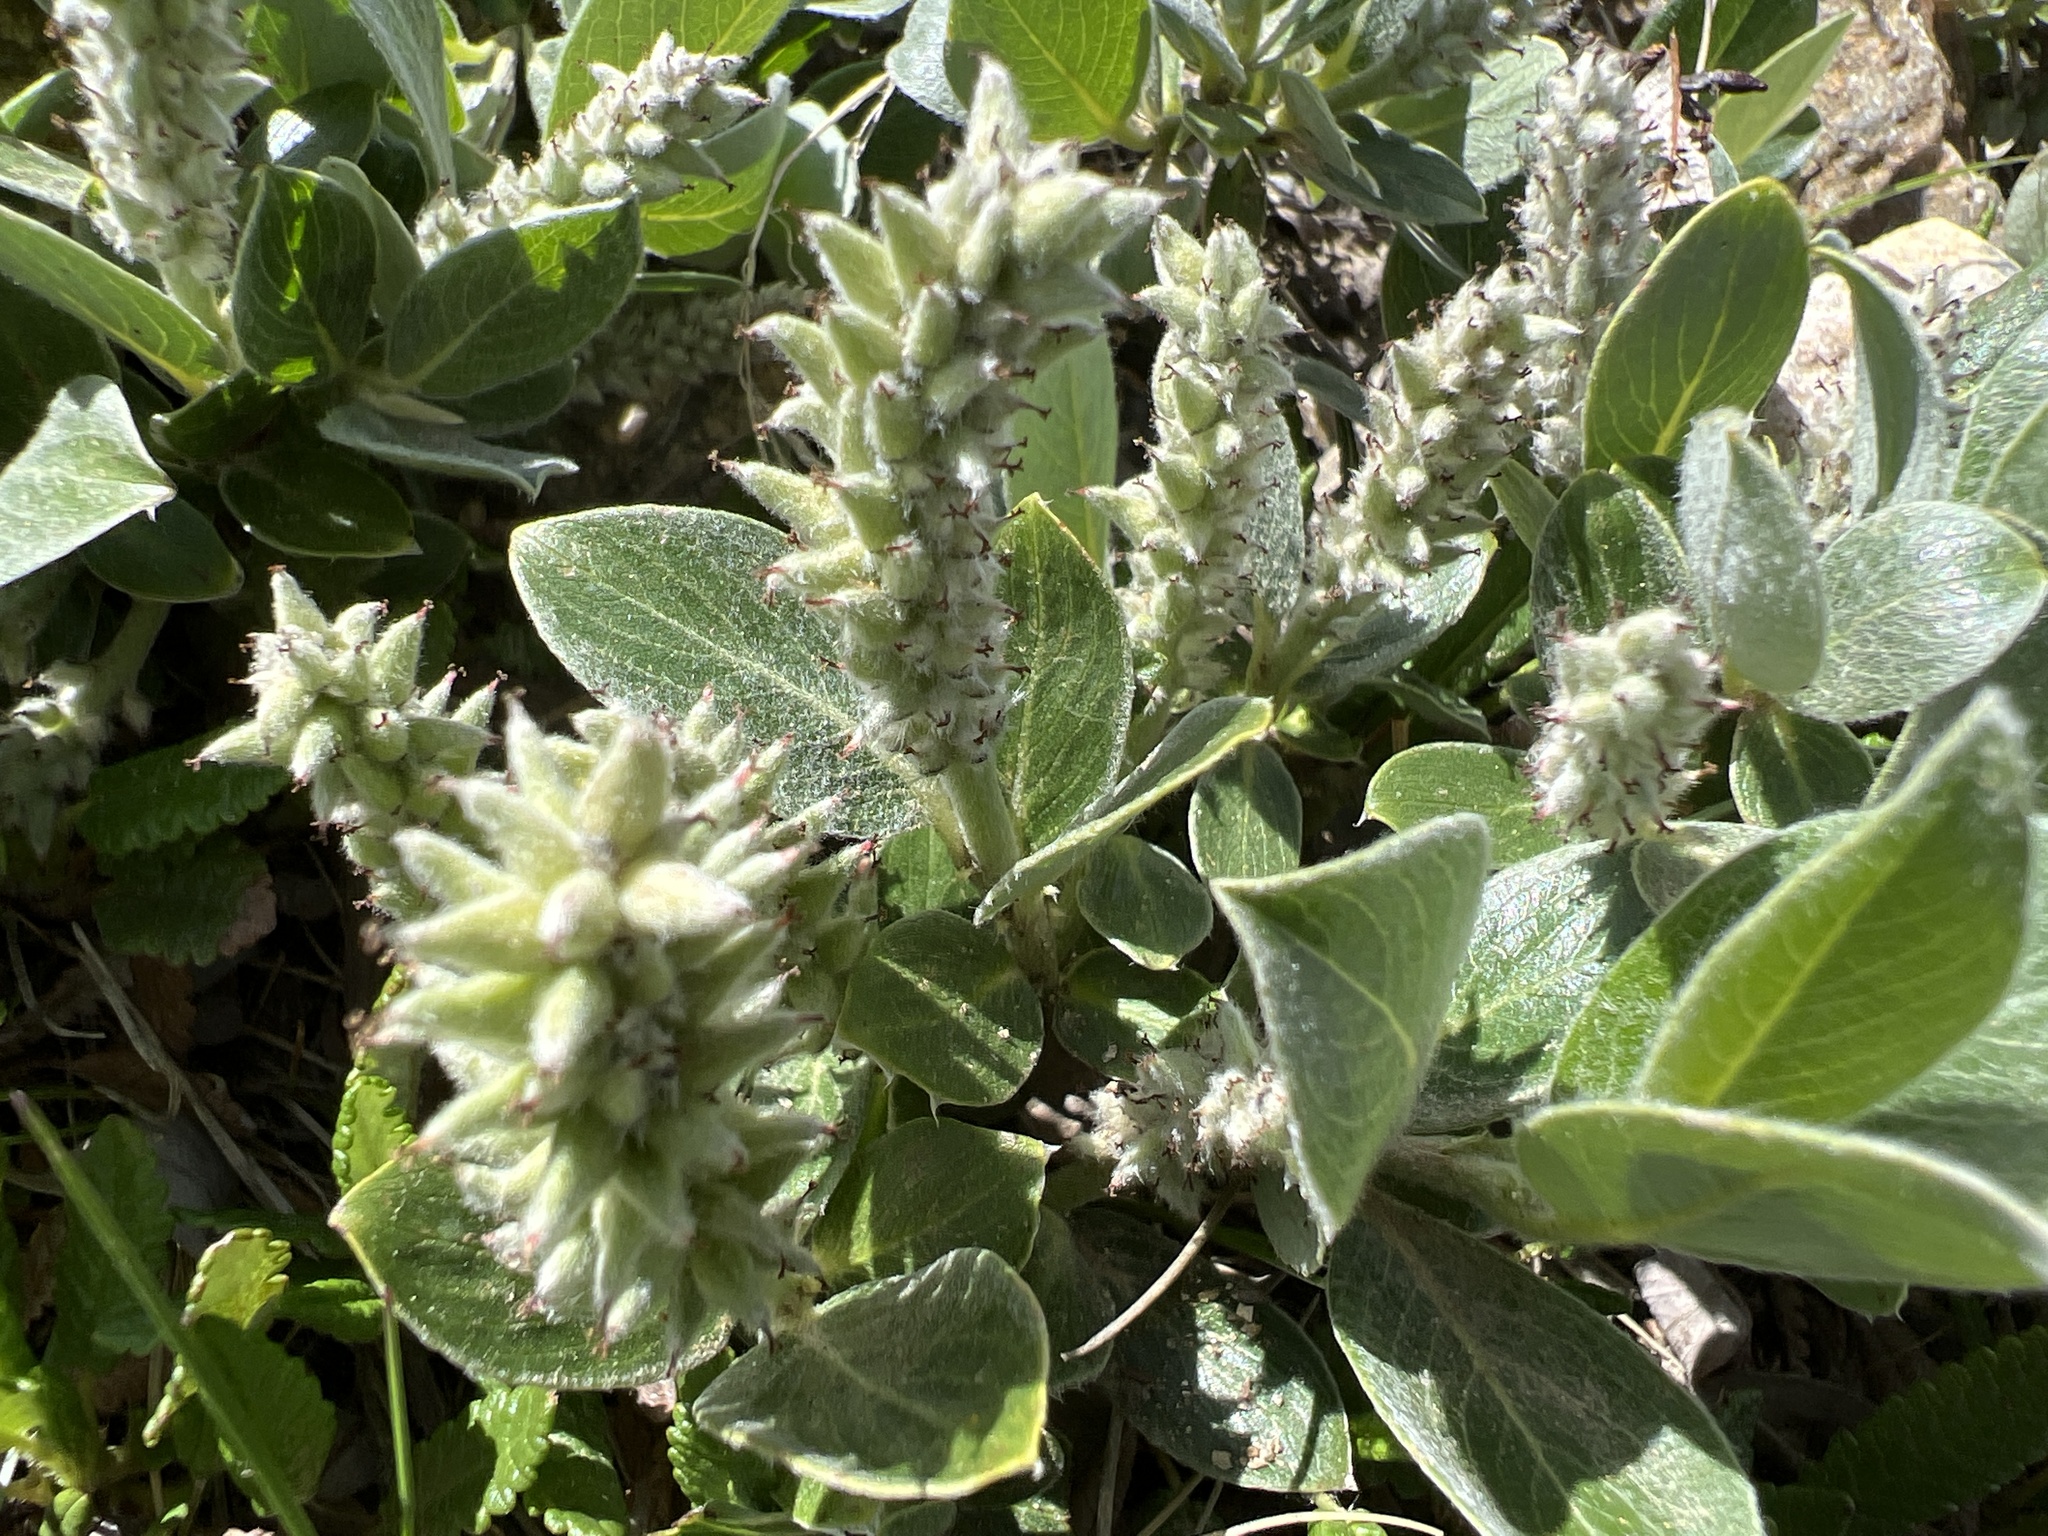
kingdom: Plantae
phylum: Tracheophyta
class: Magnoliopsida
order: Malpighiales
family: Salicaceae
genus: Salix
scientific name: Salix petrophila
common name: Rocky mountain willow
